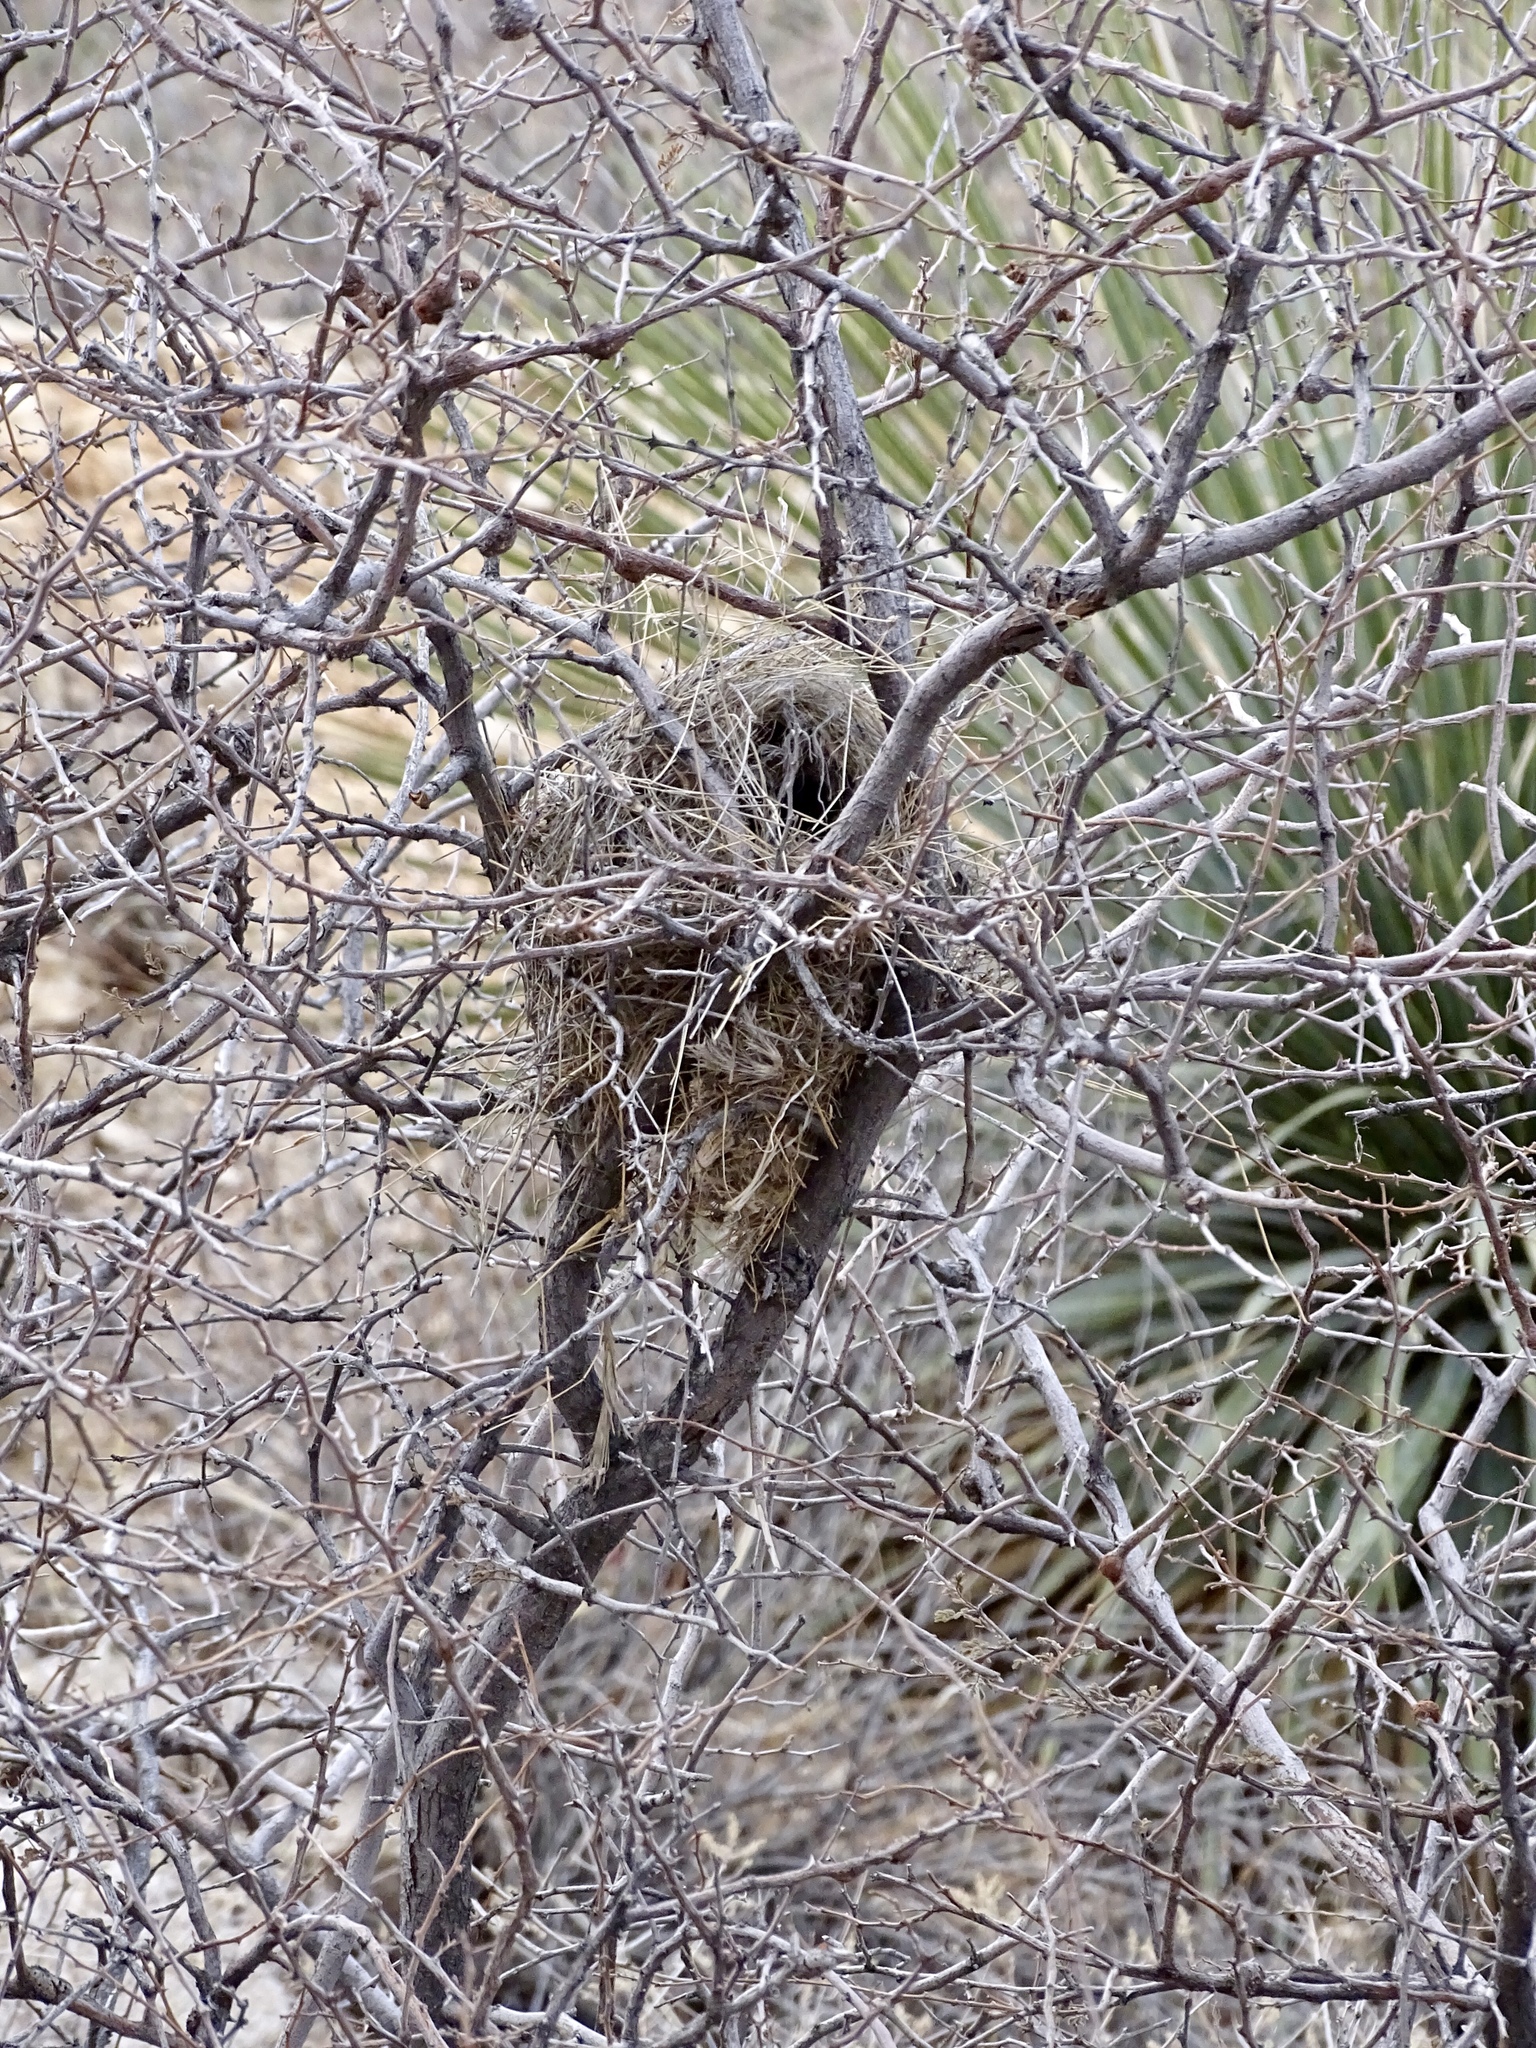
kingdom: Animalia
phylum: Chordata
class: Aves
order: Passeriformes
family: Remizidae
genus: Auriparus
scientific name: Auriparus flaviceps
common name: Verdin
